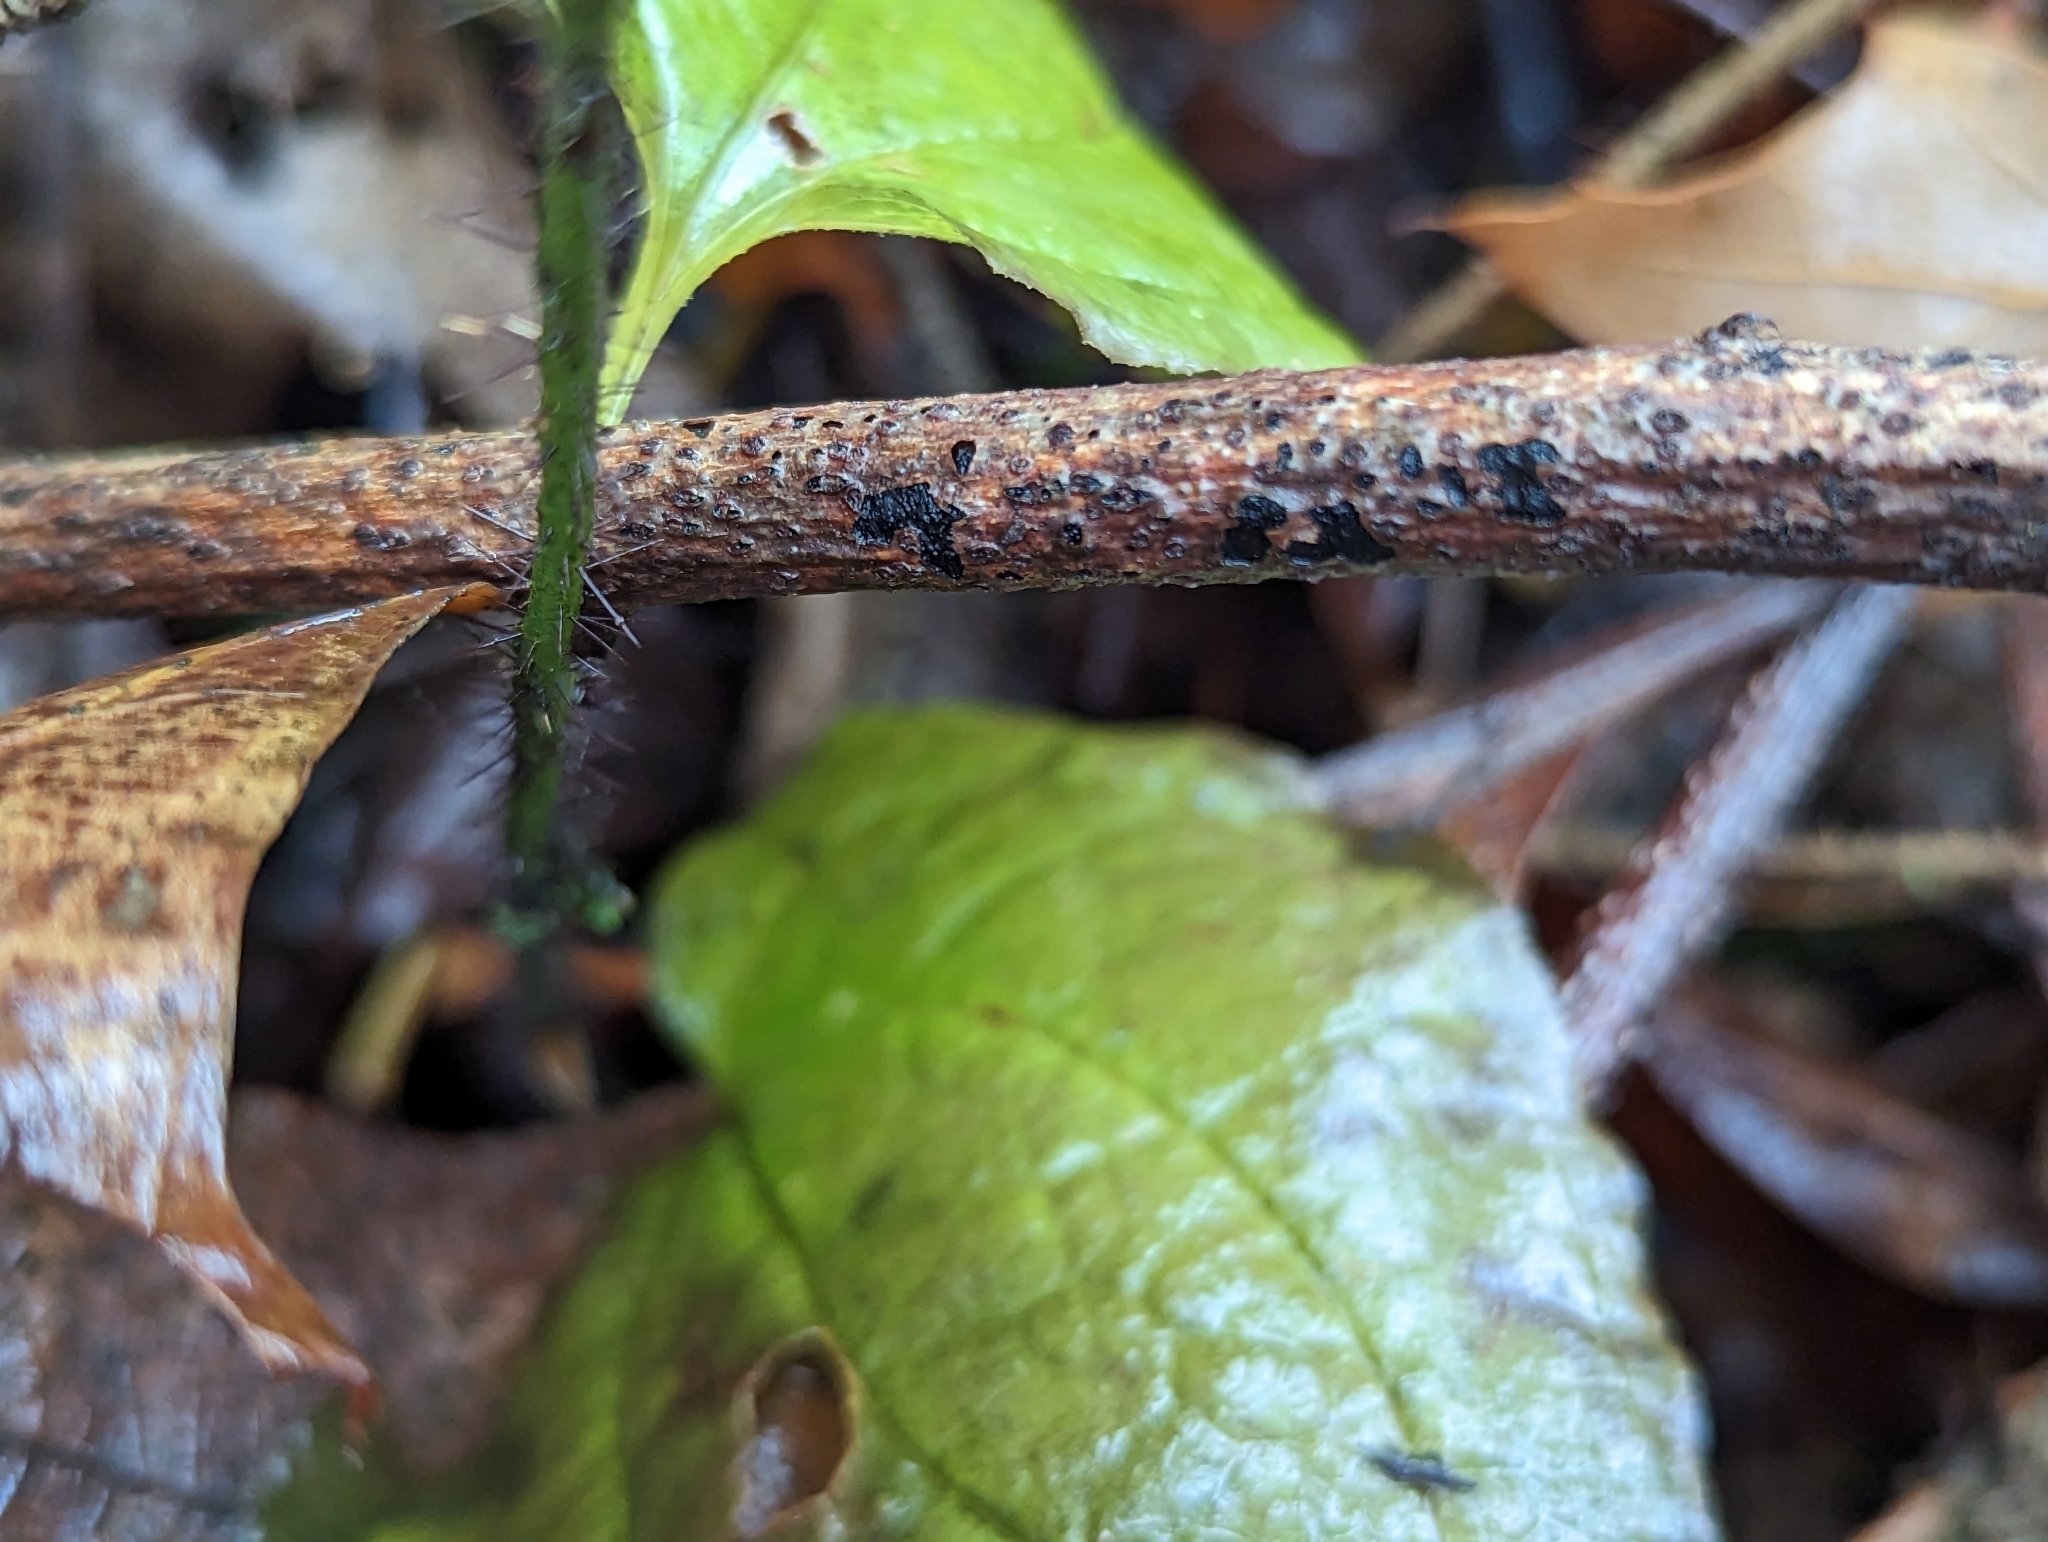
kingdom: Plantae
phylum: Tracheophyta
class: Liliopsida
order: Liliales
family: Smilacaceae
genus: Smilax
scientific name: Smilax tamnoides
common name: Hellfetter
